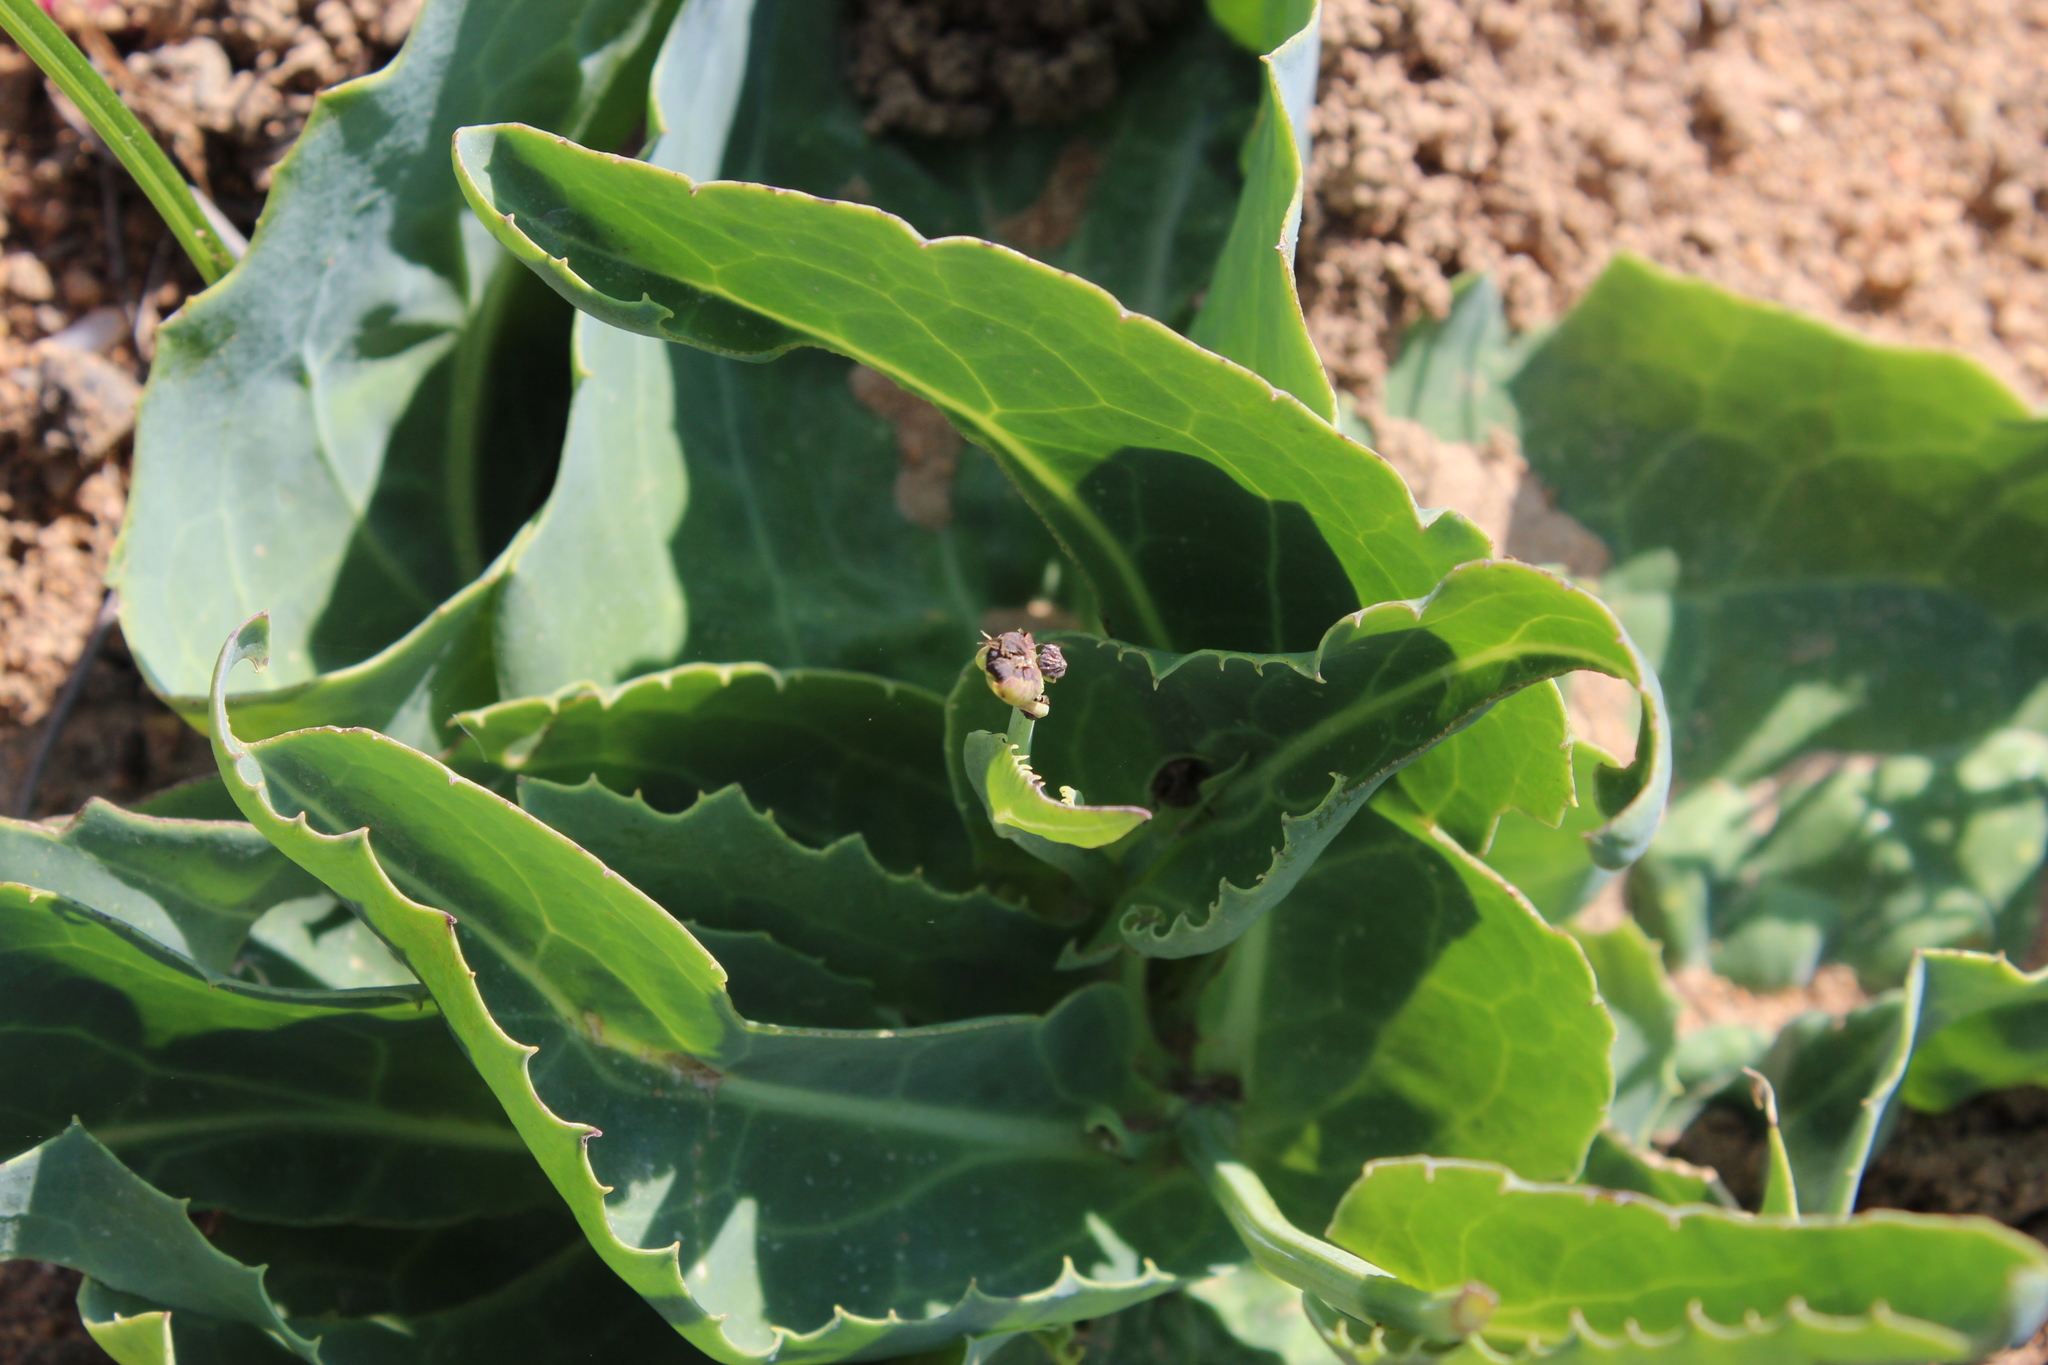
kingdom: Plantae
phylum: Tracheophyta
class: Magnoliopsida
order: Asterales
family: Asteraceae
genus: Othonna
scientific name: Othonna macrophylla
